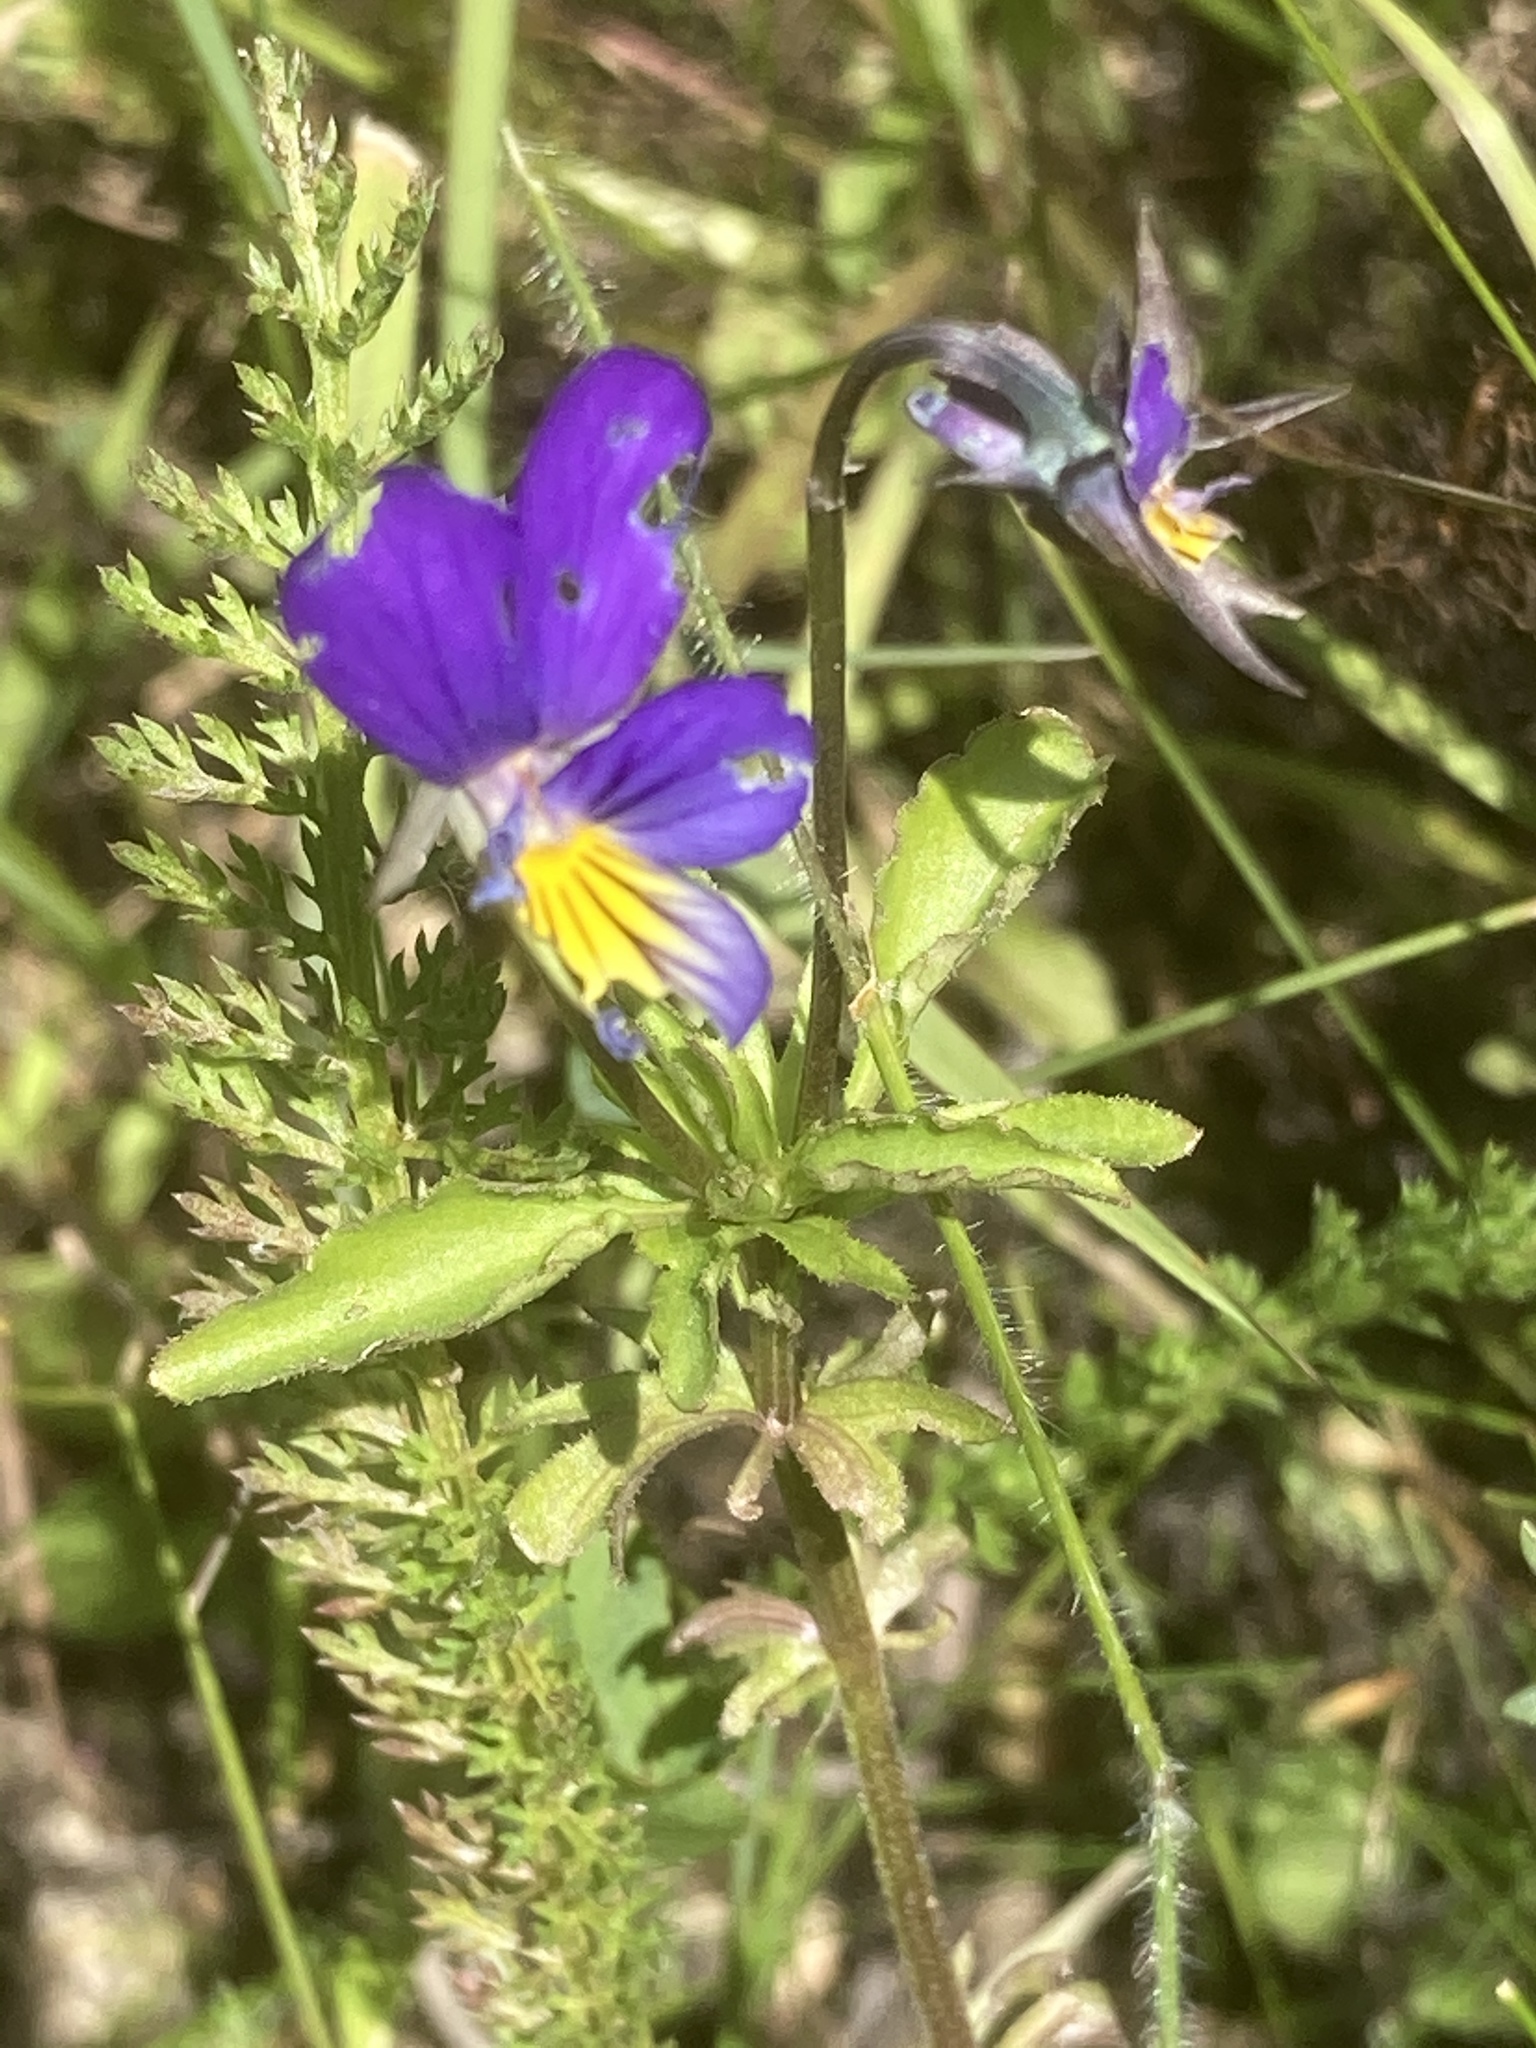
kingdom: Plantae
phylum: Tracheophyta
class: Magnoliopsida
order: Malpighiales
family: Violaceae
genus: Viola
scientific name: Viola tricolor
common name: Pansy
